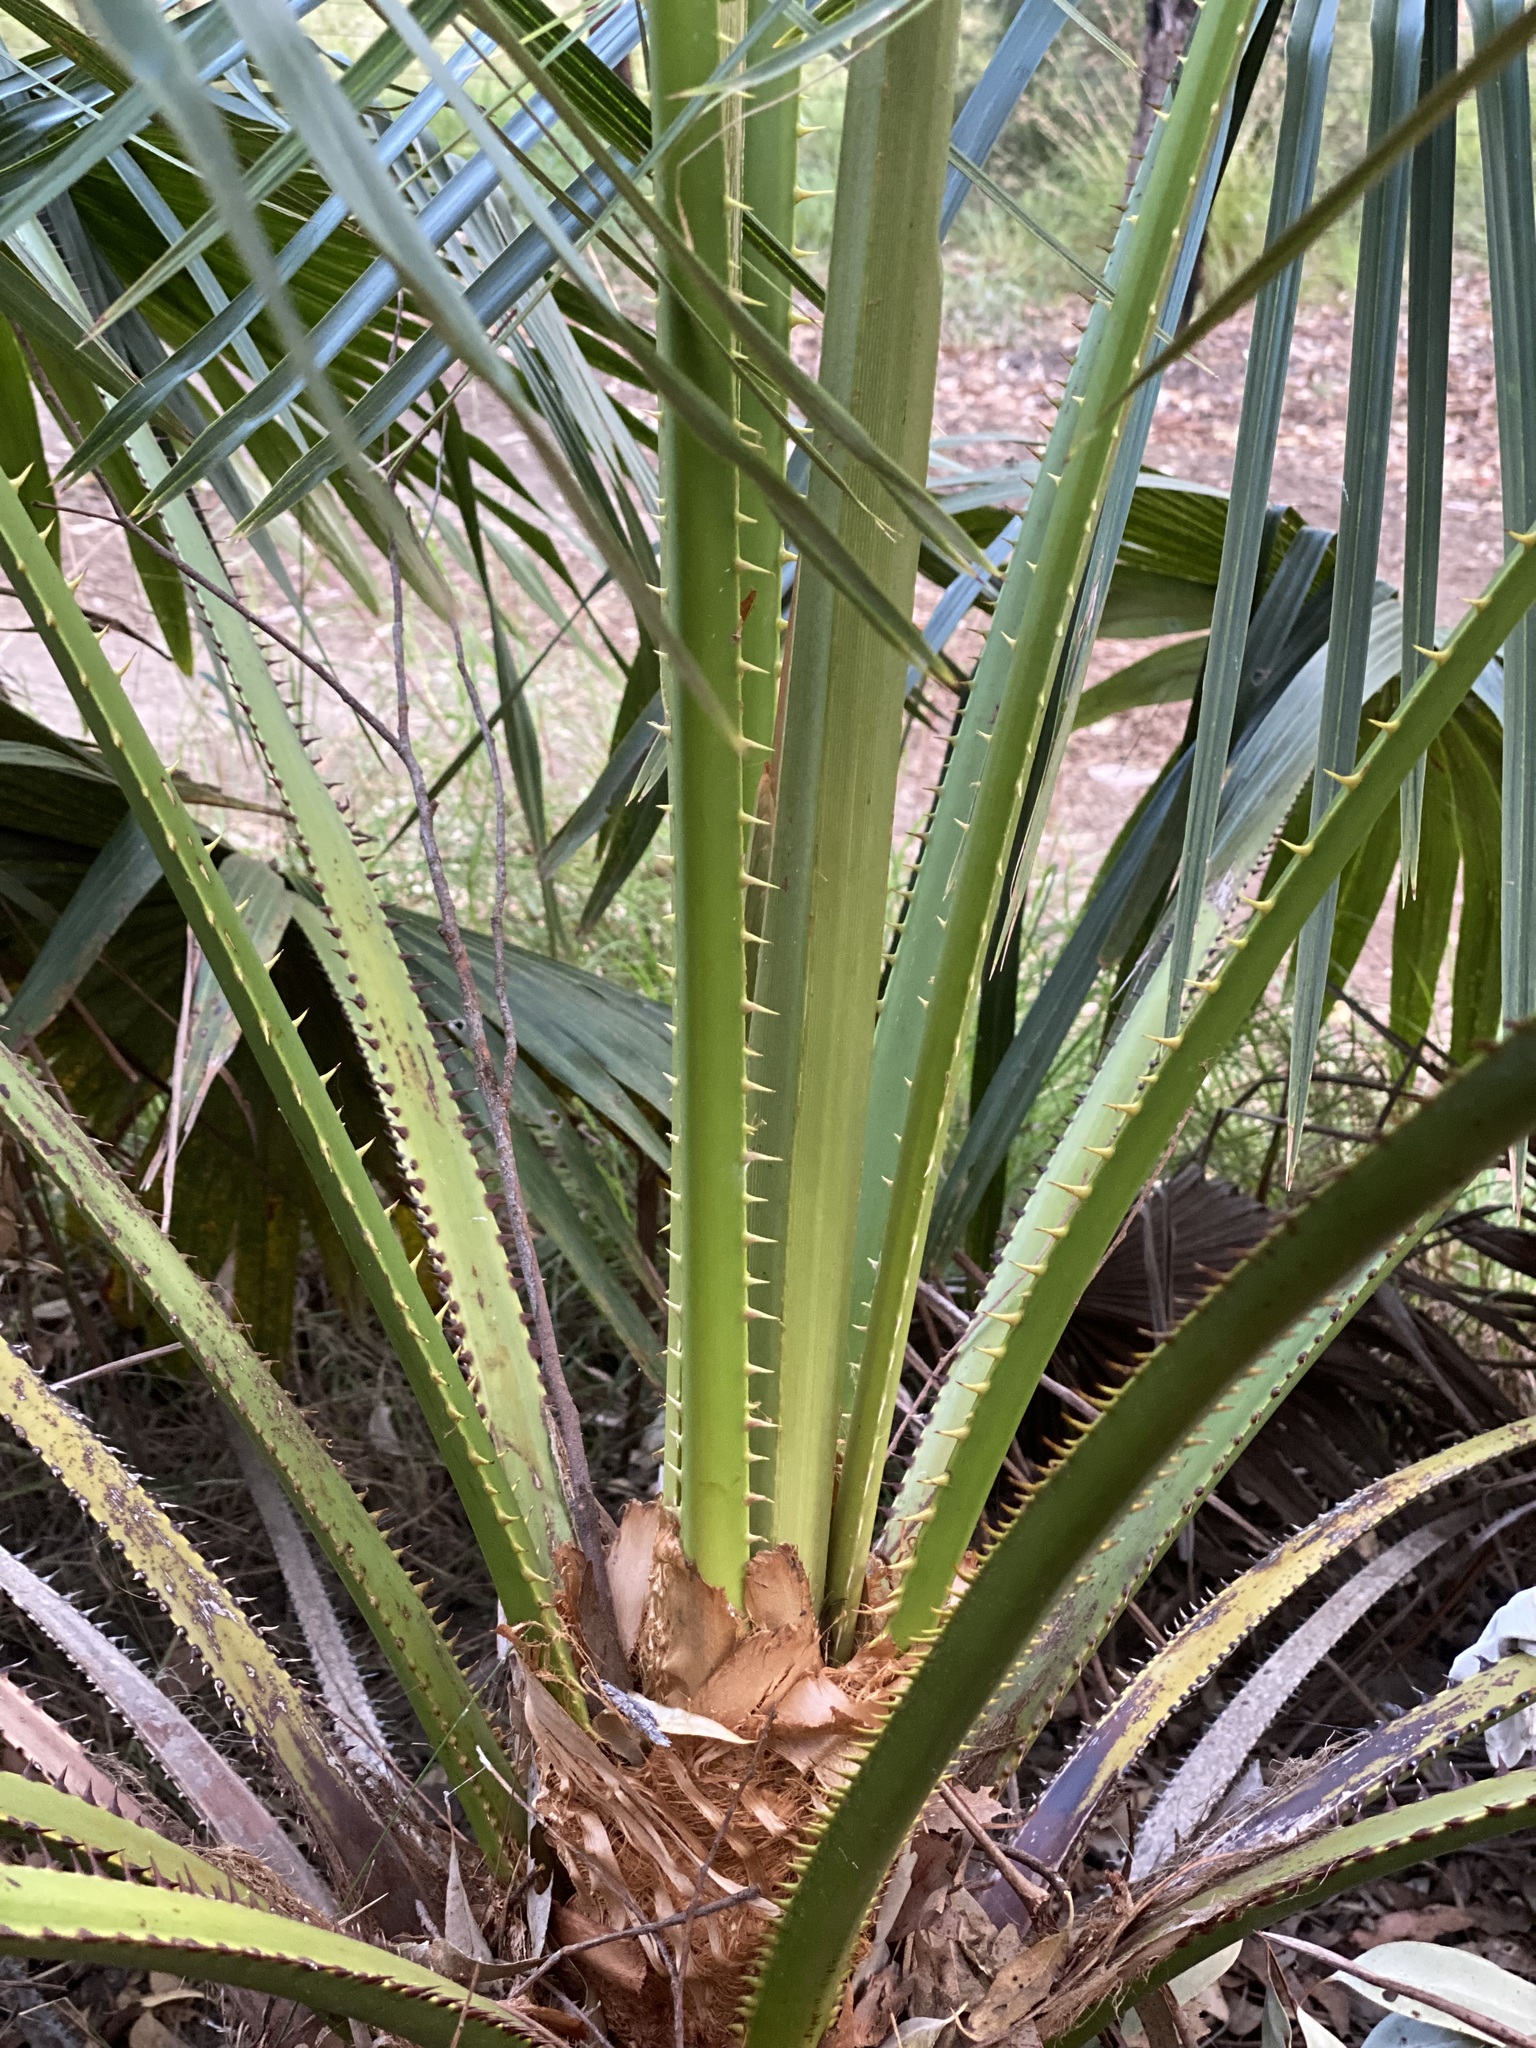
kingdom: Plantae
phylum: Tracheophyta
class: Liliopsida
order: Arecales
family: Arecaceae
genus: Livistona
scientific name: Livistona fulva
